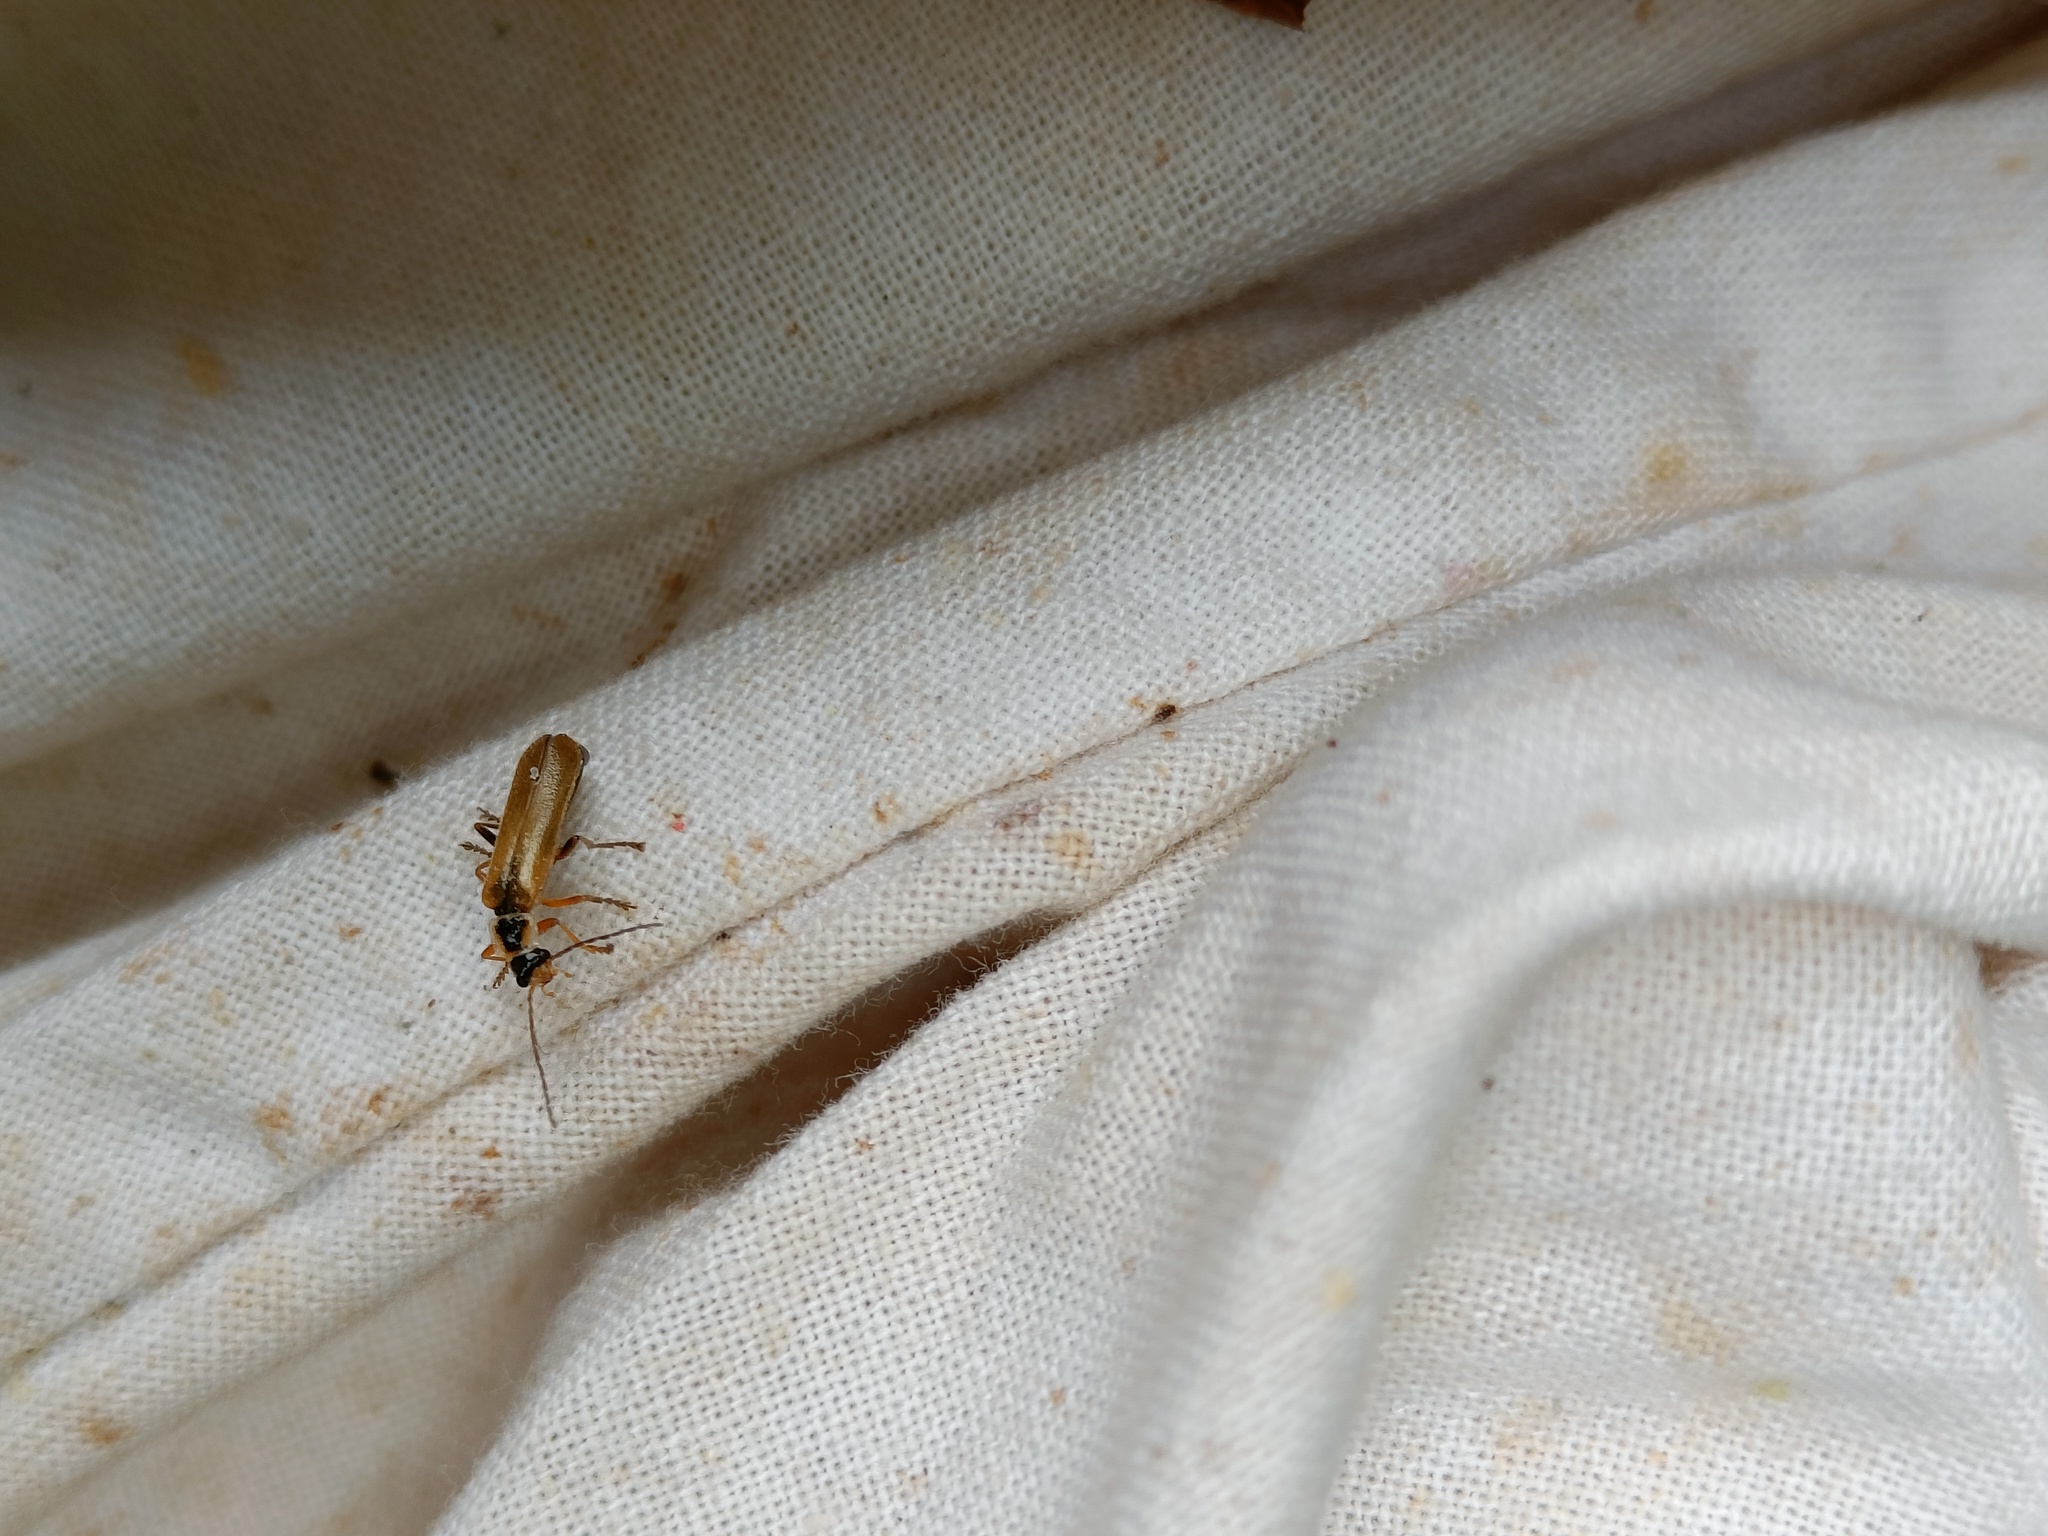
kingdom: Animalia
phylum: Arthropoda
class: Insecta
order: Coleoptera
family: Cantharidae
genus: Cantharis
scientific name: Cantharis decipiens
